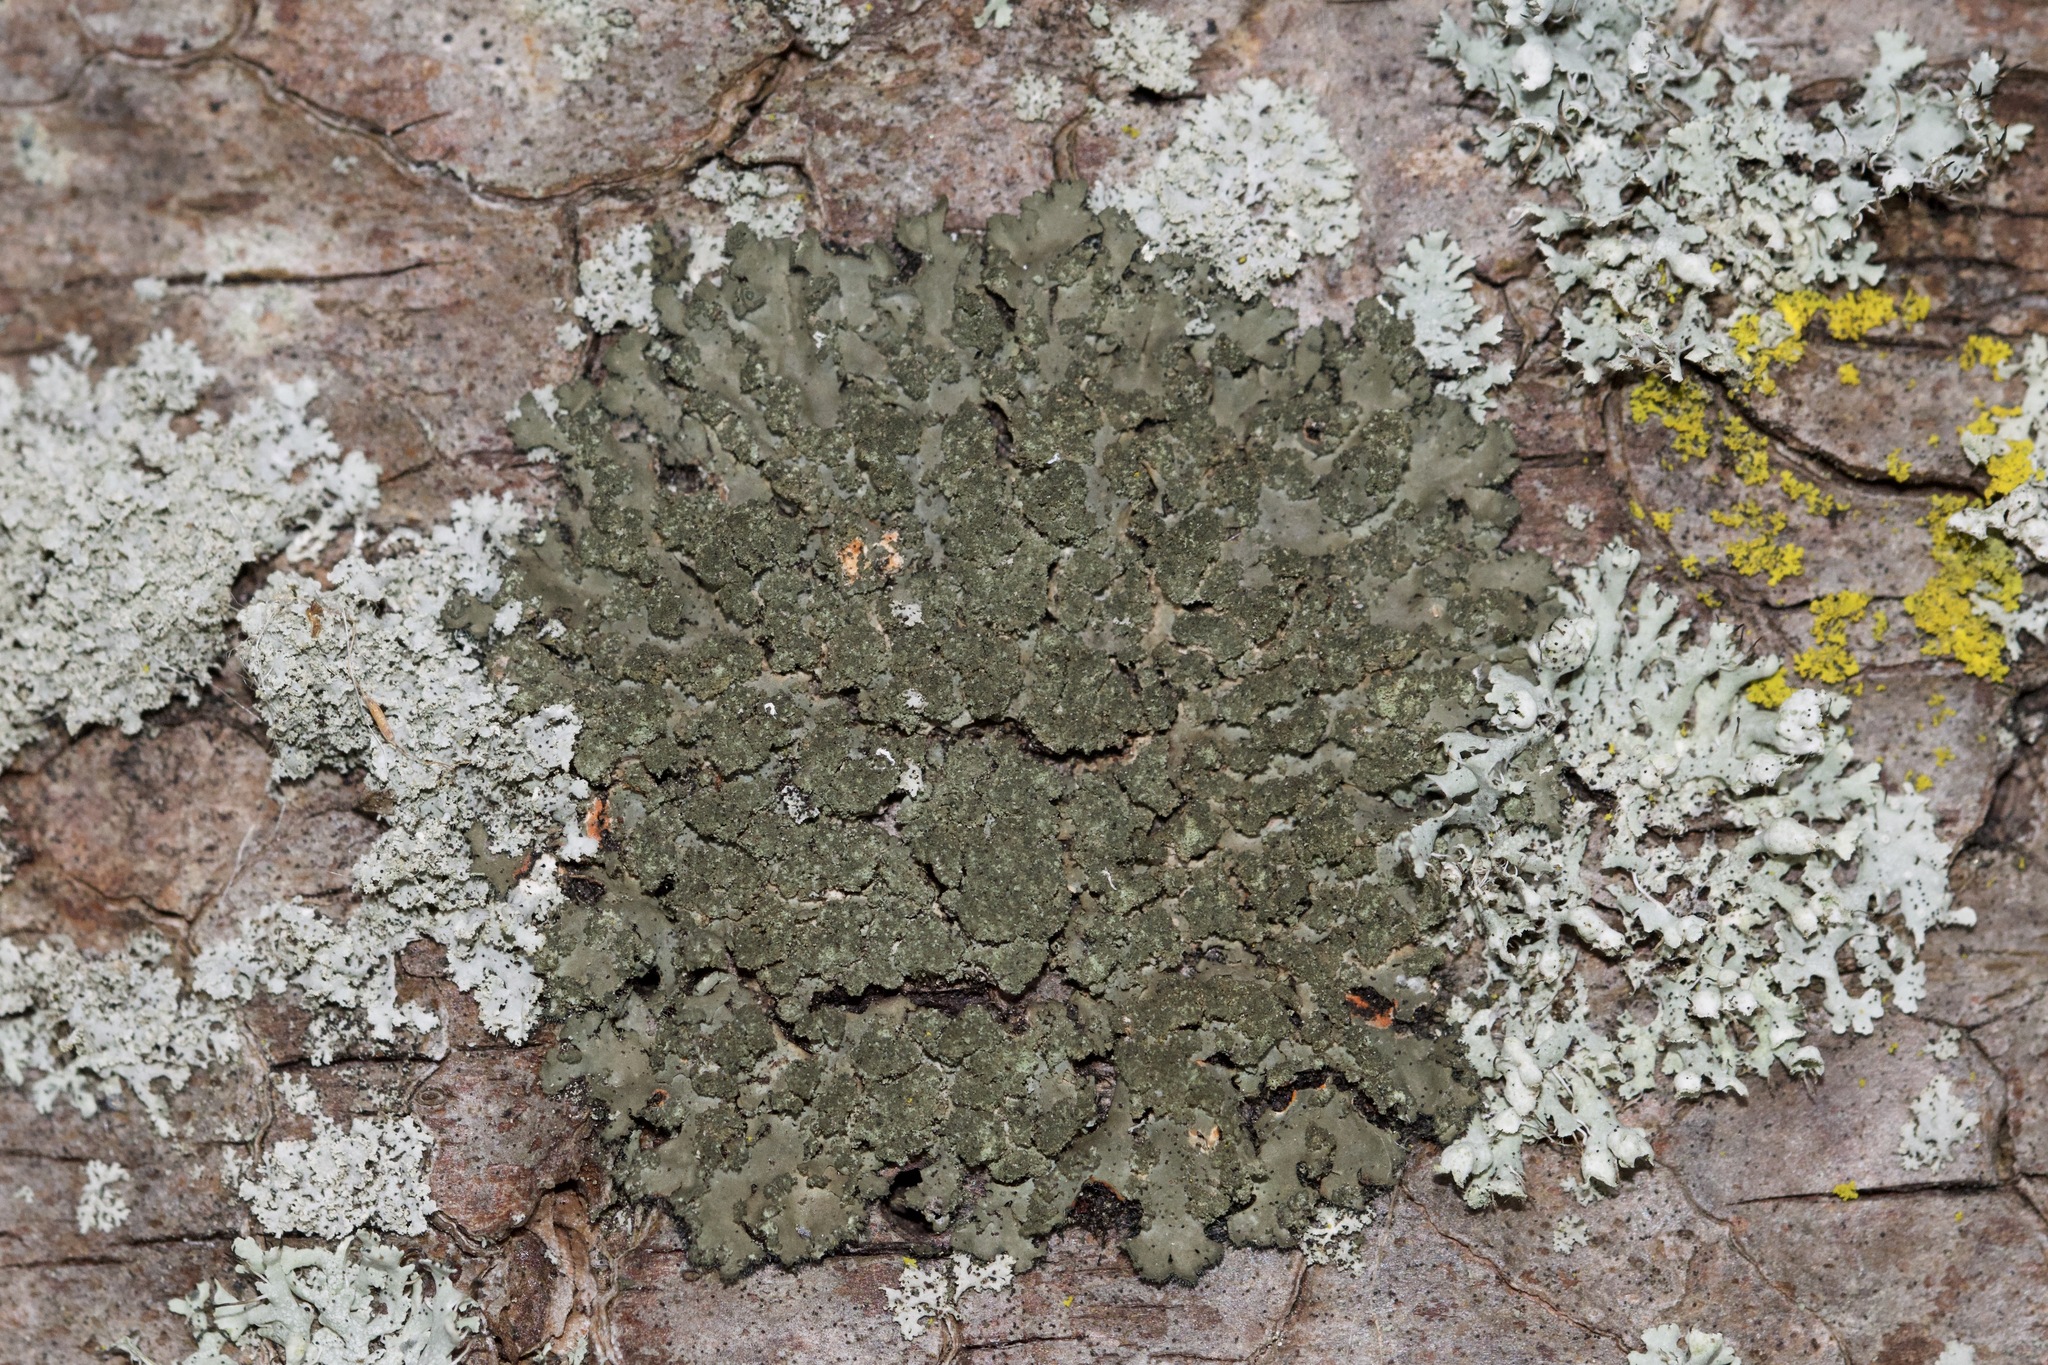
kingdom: Fungi
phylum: Ascomycota
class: Lecanoromycetes
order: Caliciales
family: Physciaceae
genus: Phaeophyscia
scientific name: Phaeophyscia rubropulchra
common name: Orange-cored shadow lichen
